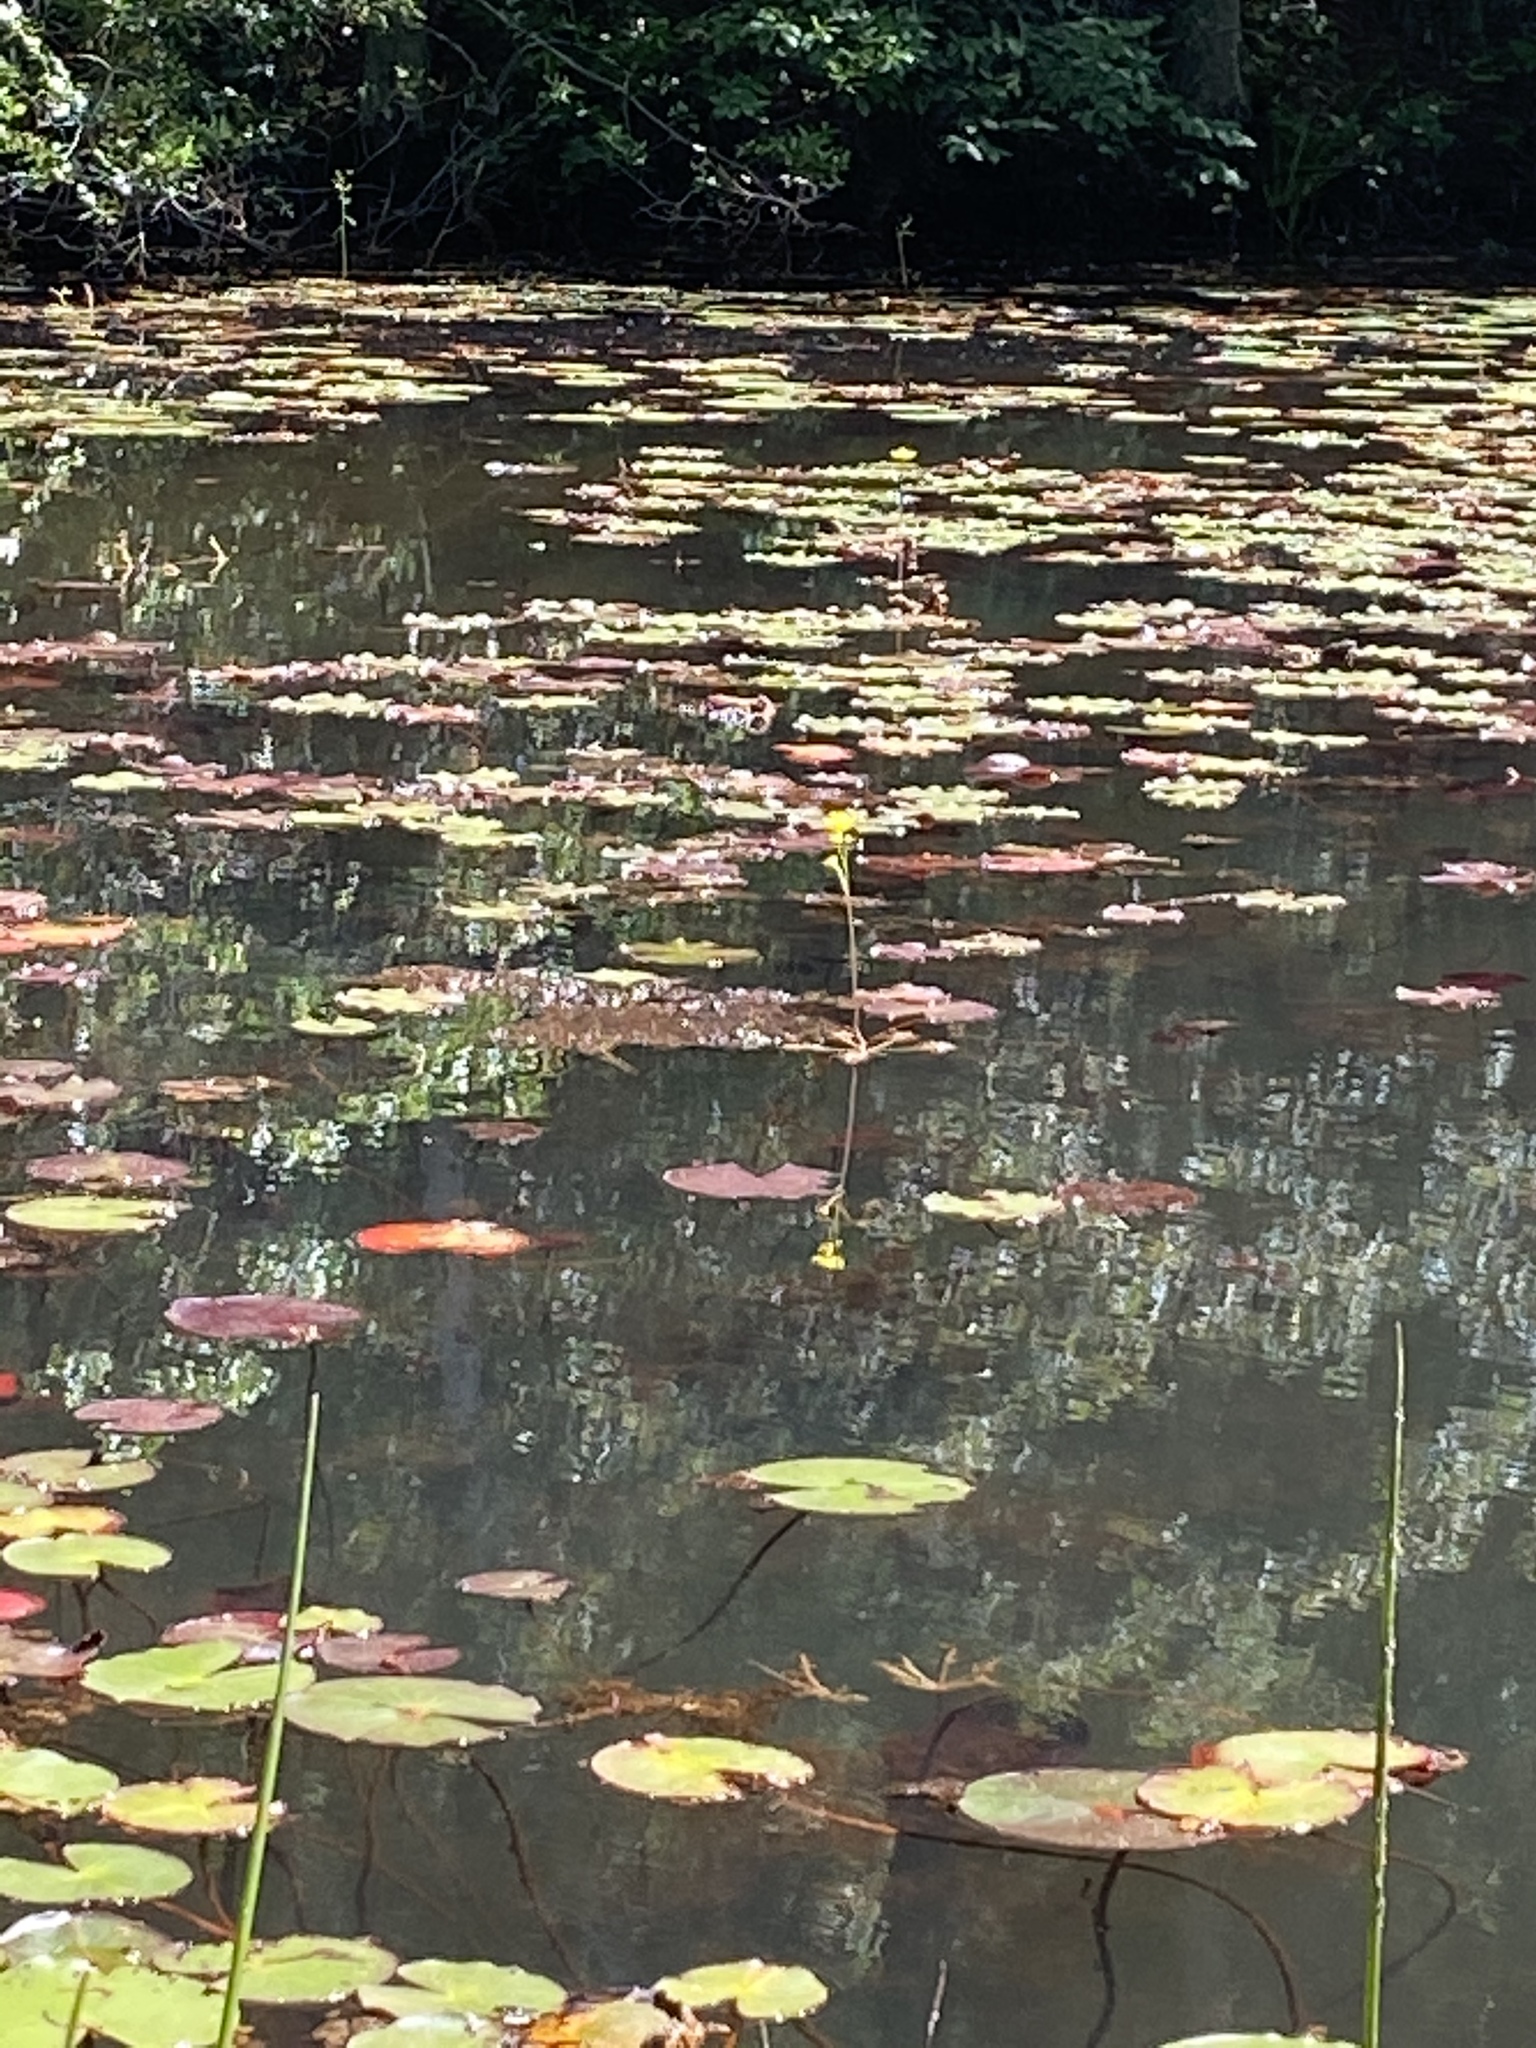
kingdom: Plantae
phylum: Tracheophyta
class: Magnoliopsida
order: Lamiales
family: Lentibulariaceae
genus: Utricularia
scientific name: Utricularia inflata
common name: Floating bladderwort
